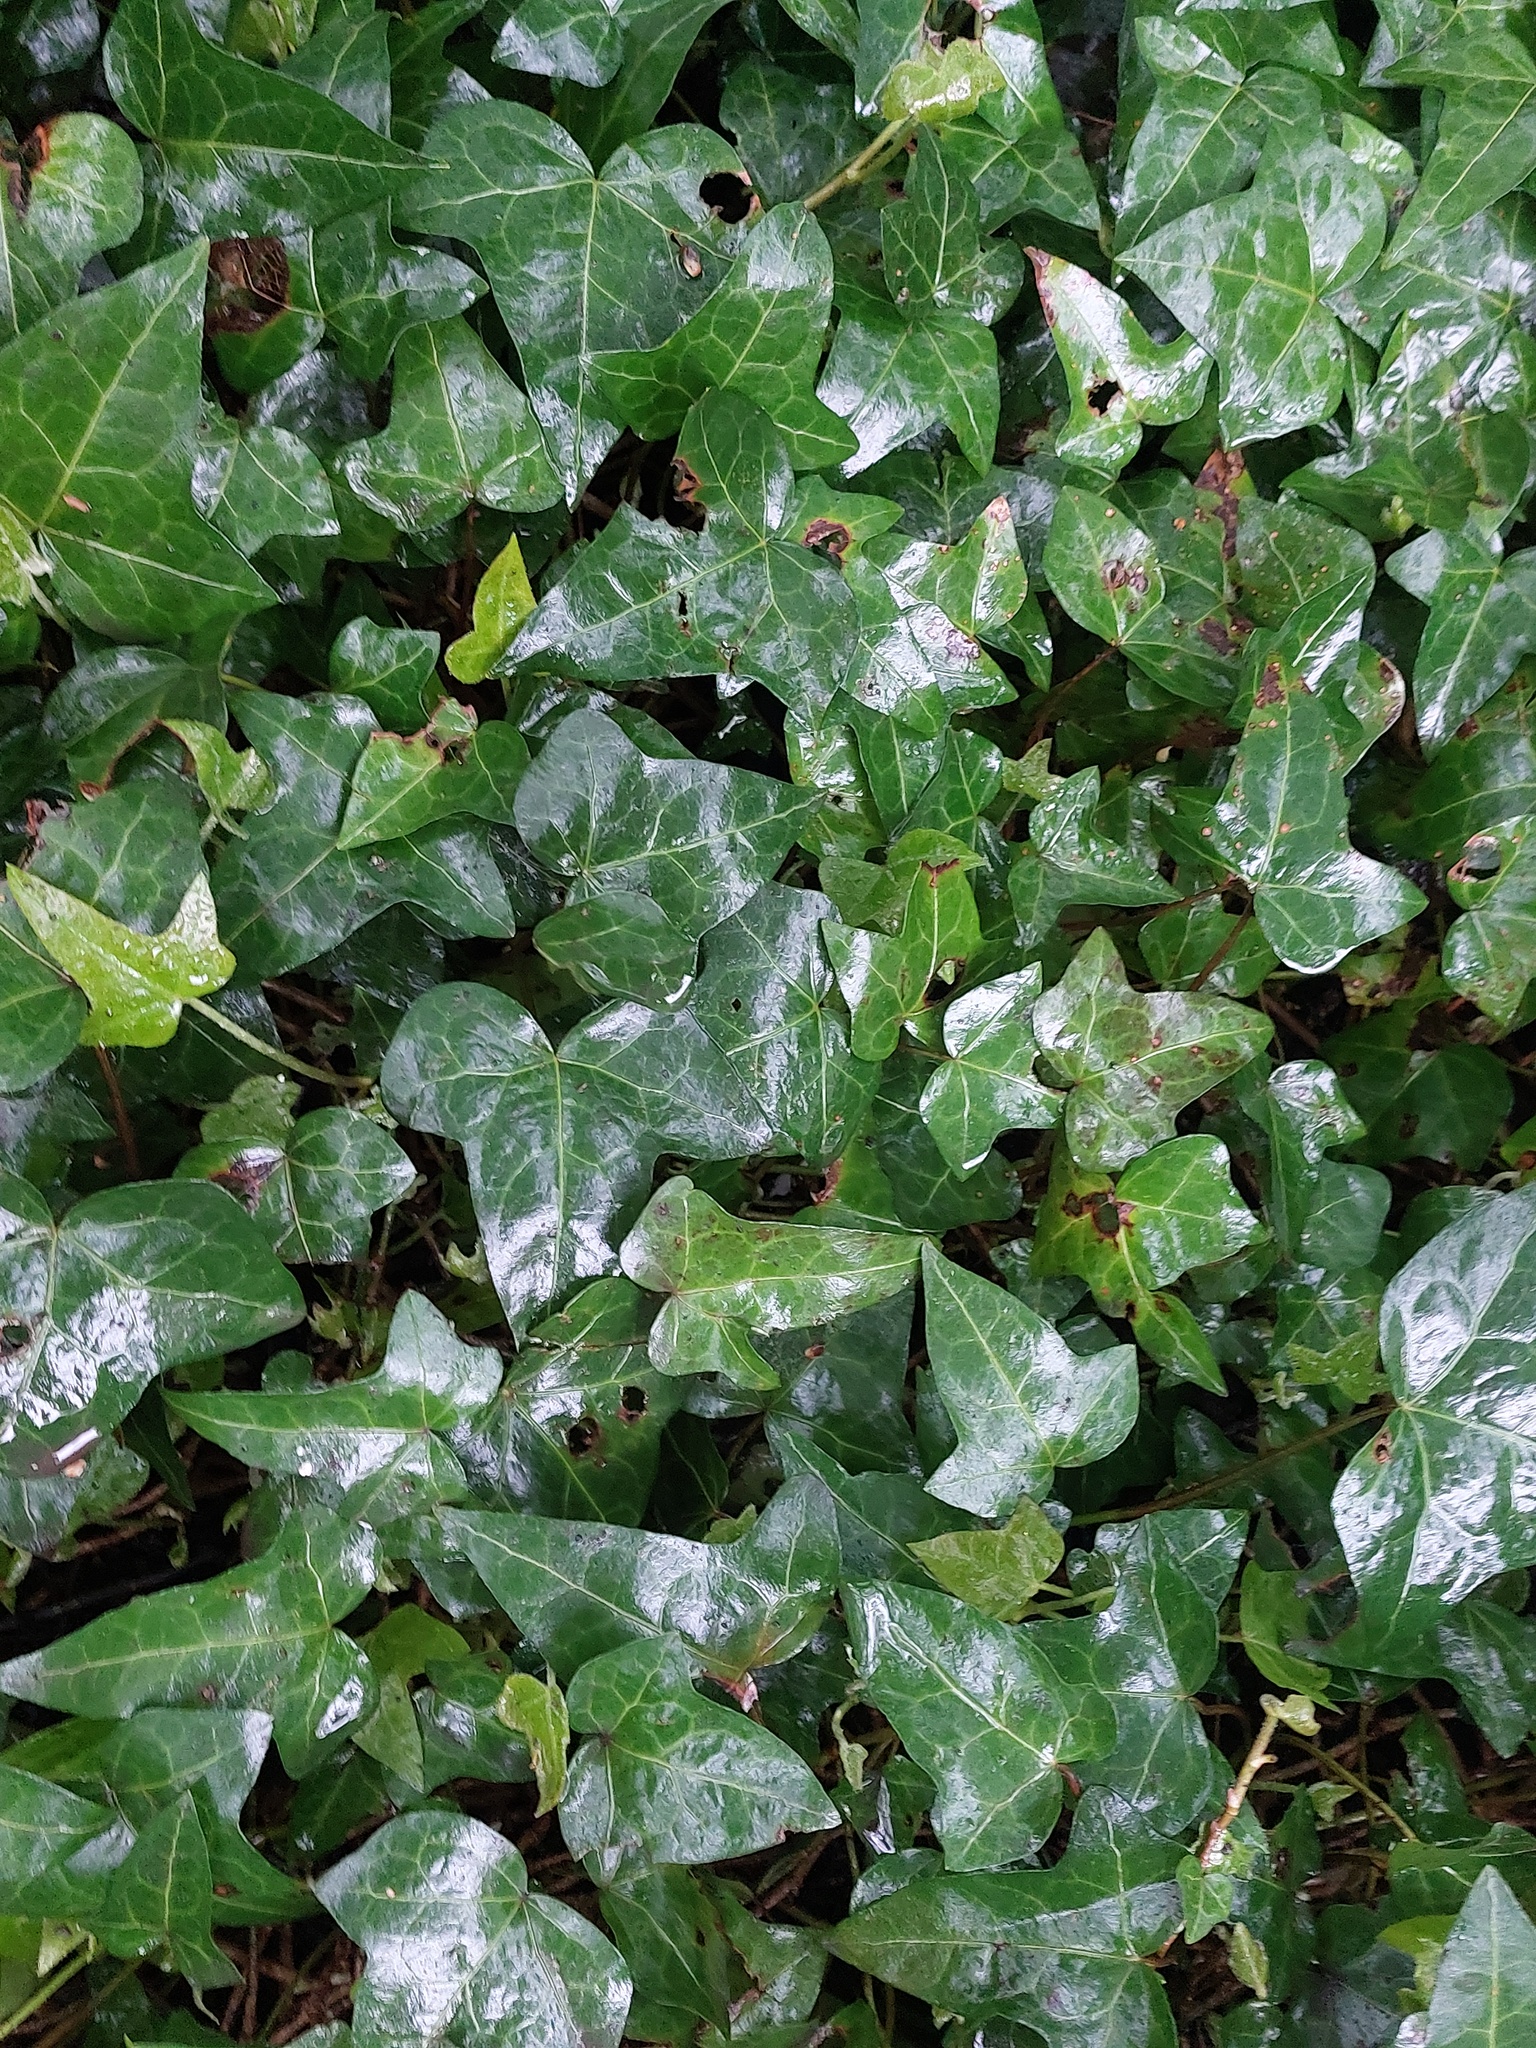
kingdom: Plantae
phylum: Tracheophyta
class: Magnoliopsida
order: Apiales
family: Araliaceae
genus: Hedera
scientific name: Hedera helix
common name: Ivy
